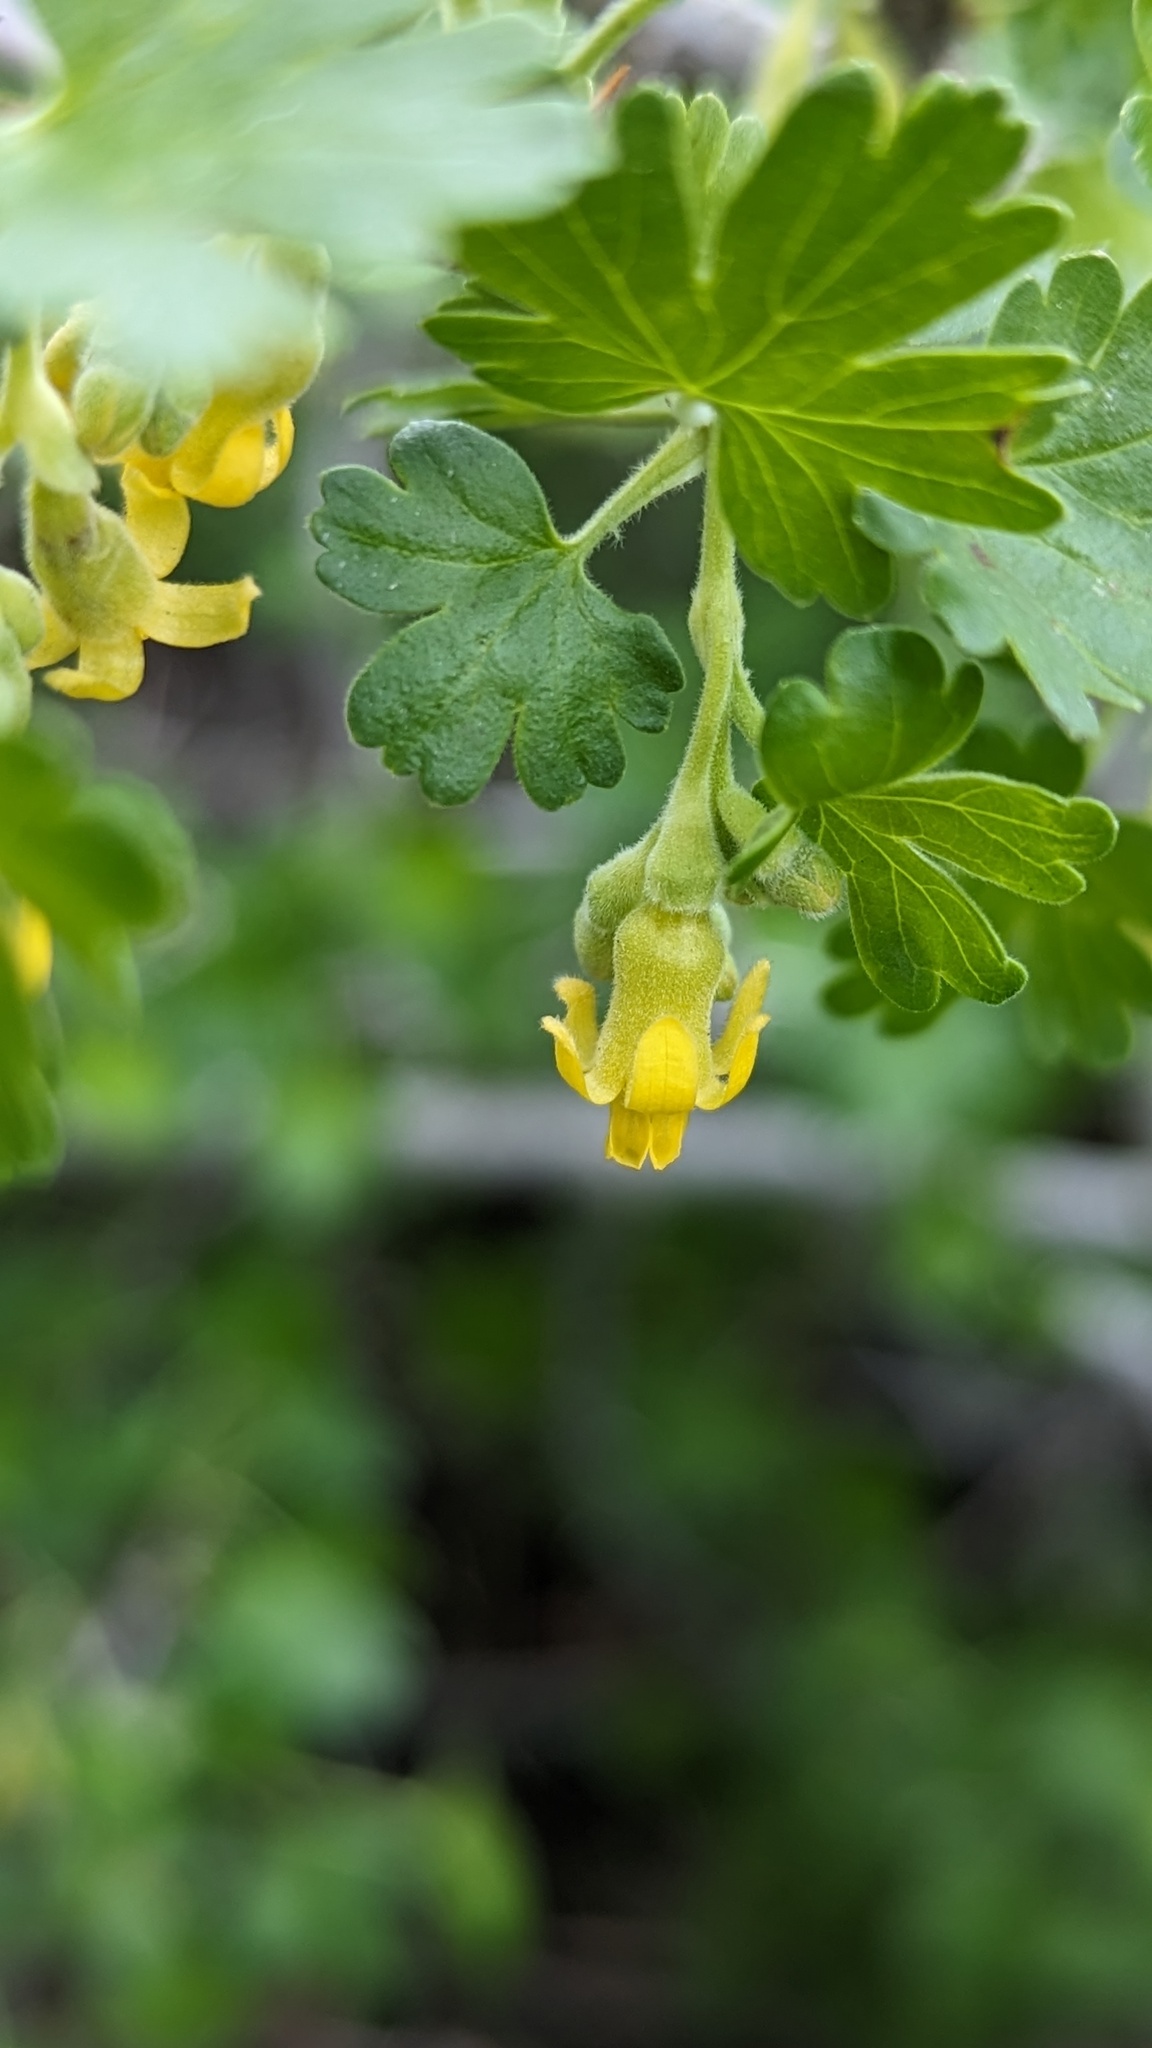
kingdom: Plantae
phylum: Tracheophyta
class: Magnoliopsida
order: Saxifragales
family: Grossulariaceae
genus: Ribes
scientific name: Ribes quercetorum
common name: Oak gooseberry
